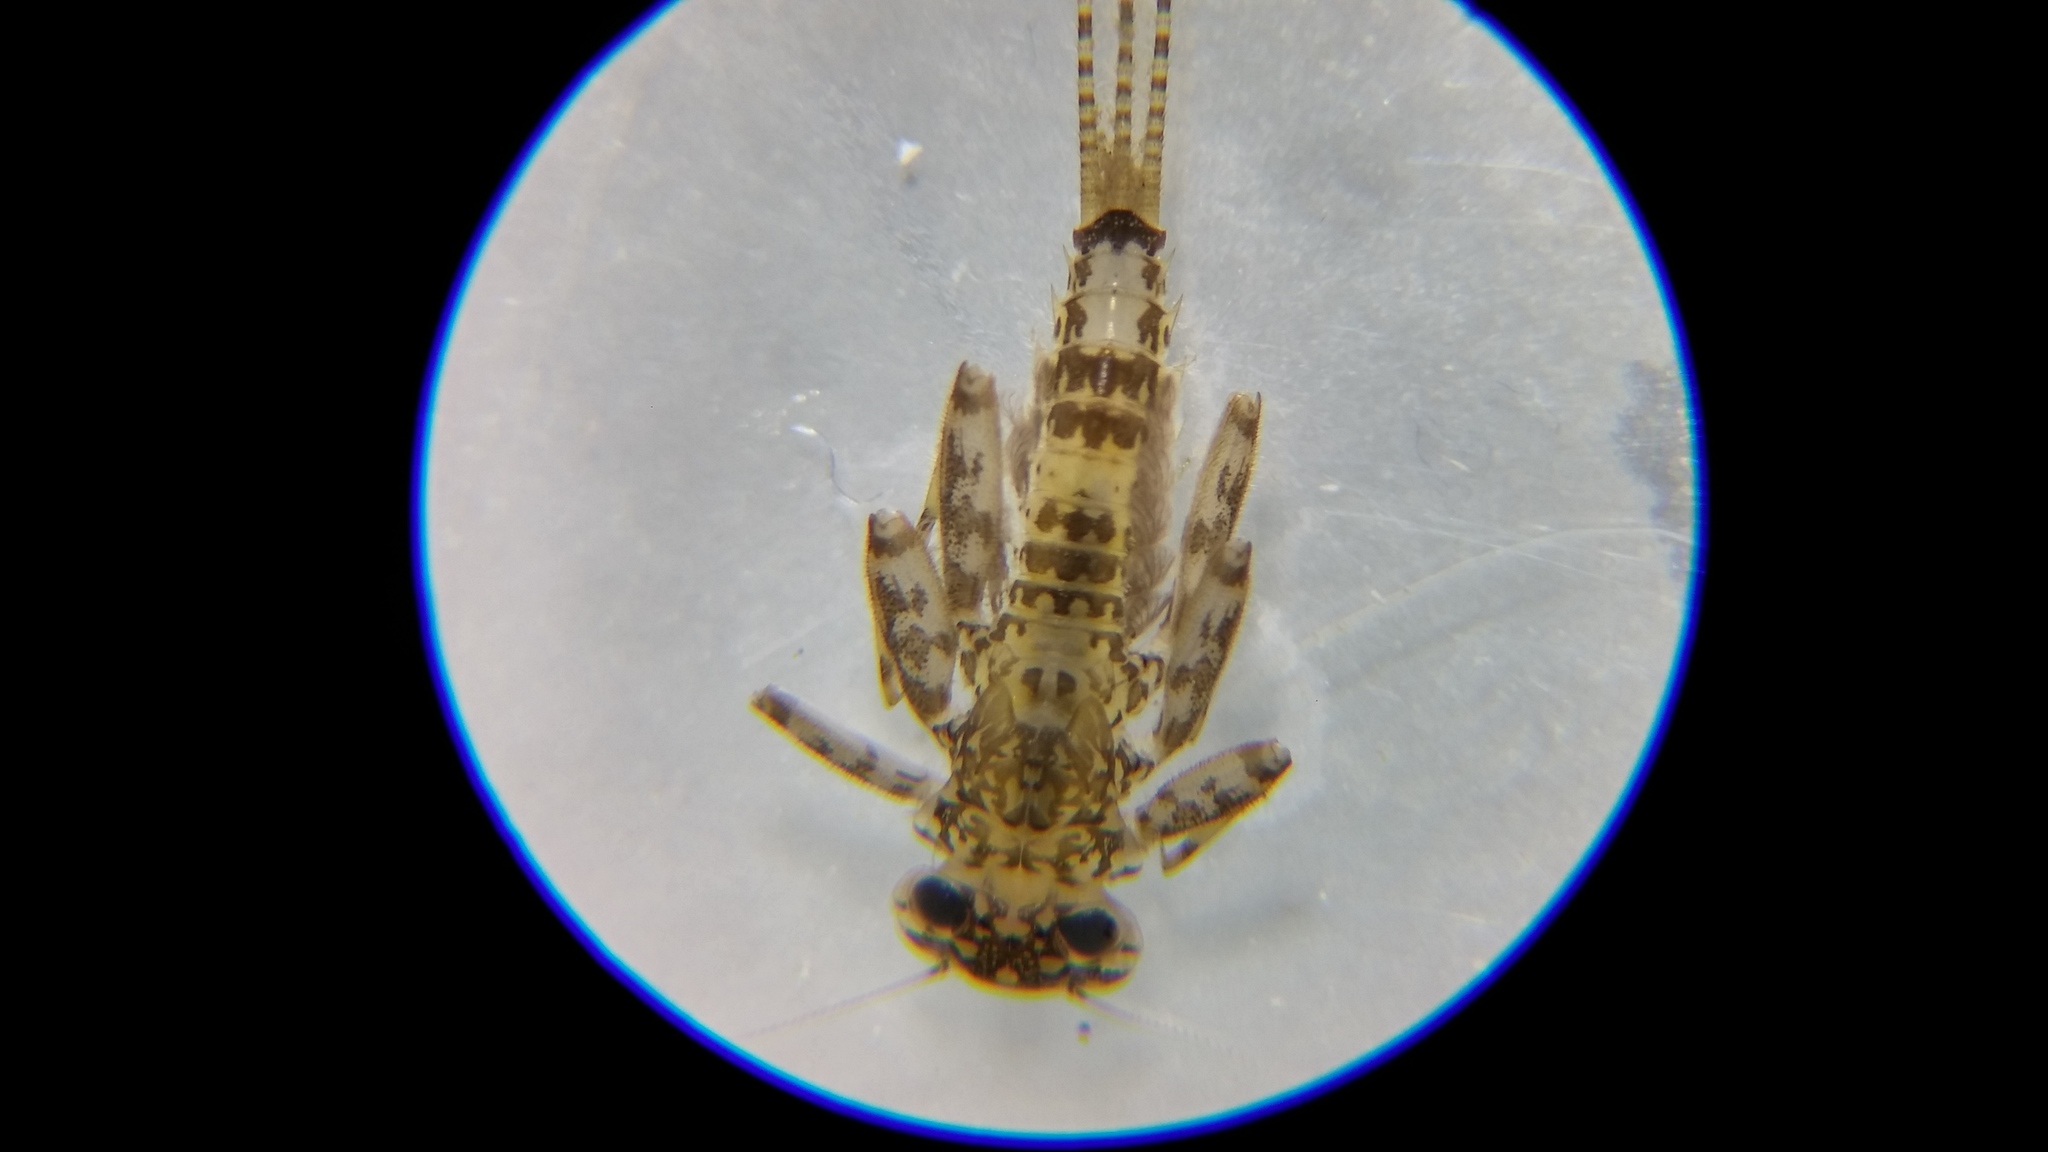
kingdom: Animalia
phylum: Arthropoda
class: Insecta
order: Ephemeroptera
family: Heptageniidae
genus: Stenonema
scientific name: Stenonema femoratum
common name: Dark cahill
